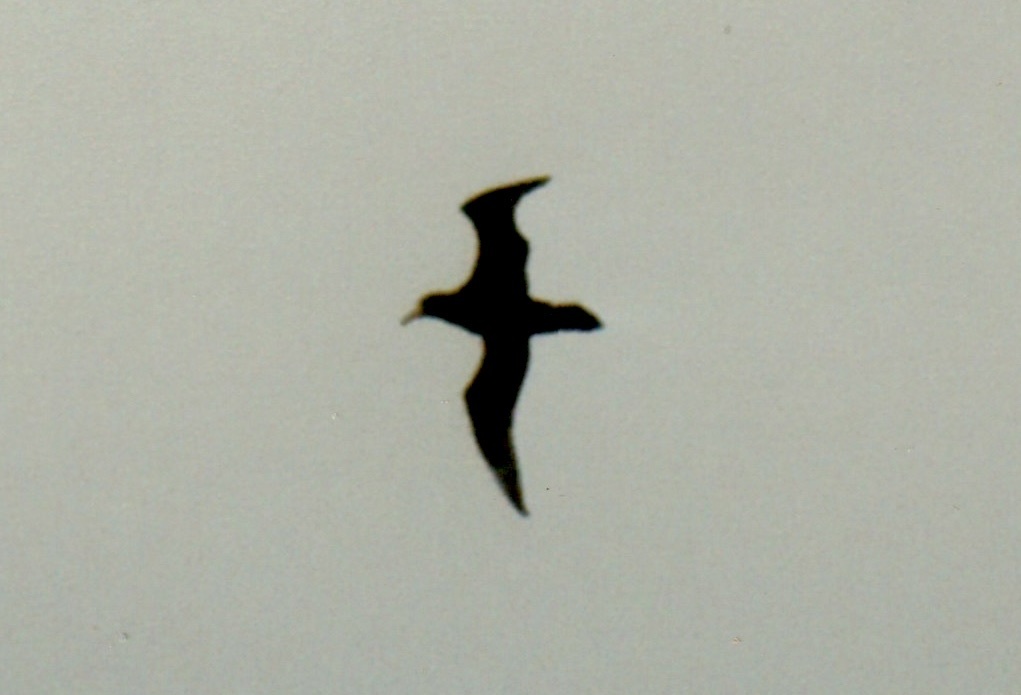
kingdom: Animalia
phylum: Chordata
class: Aves
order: Procellariiformes
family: Procellariidae
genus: Macronectes
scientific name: Macronectes giganteus
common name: Southern giant petrel
